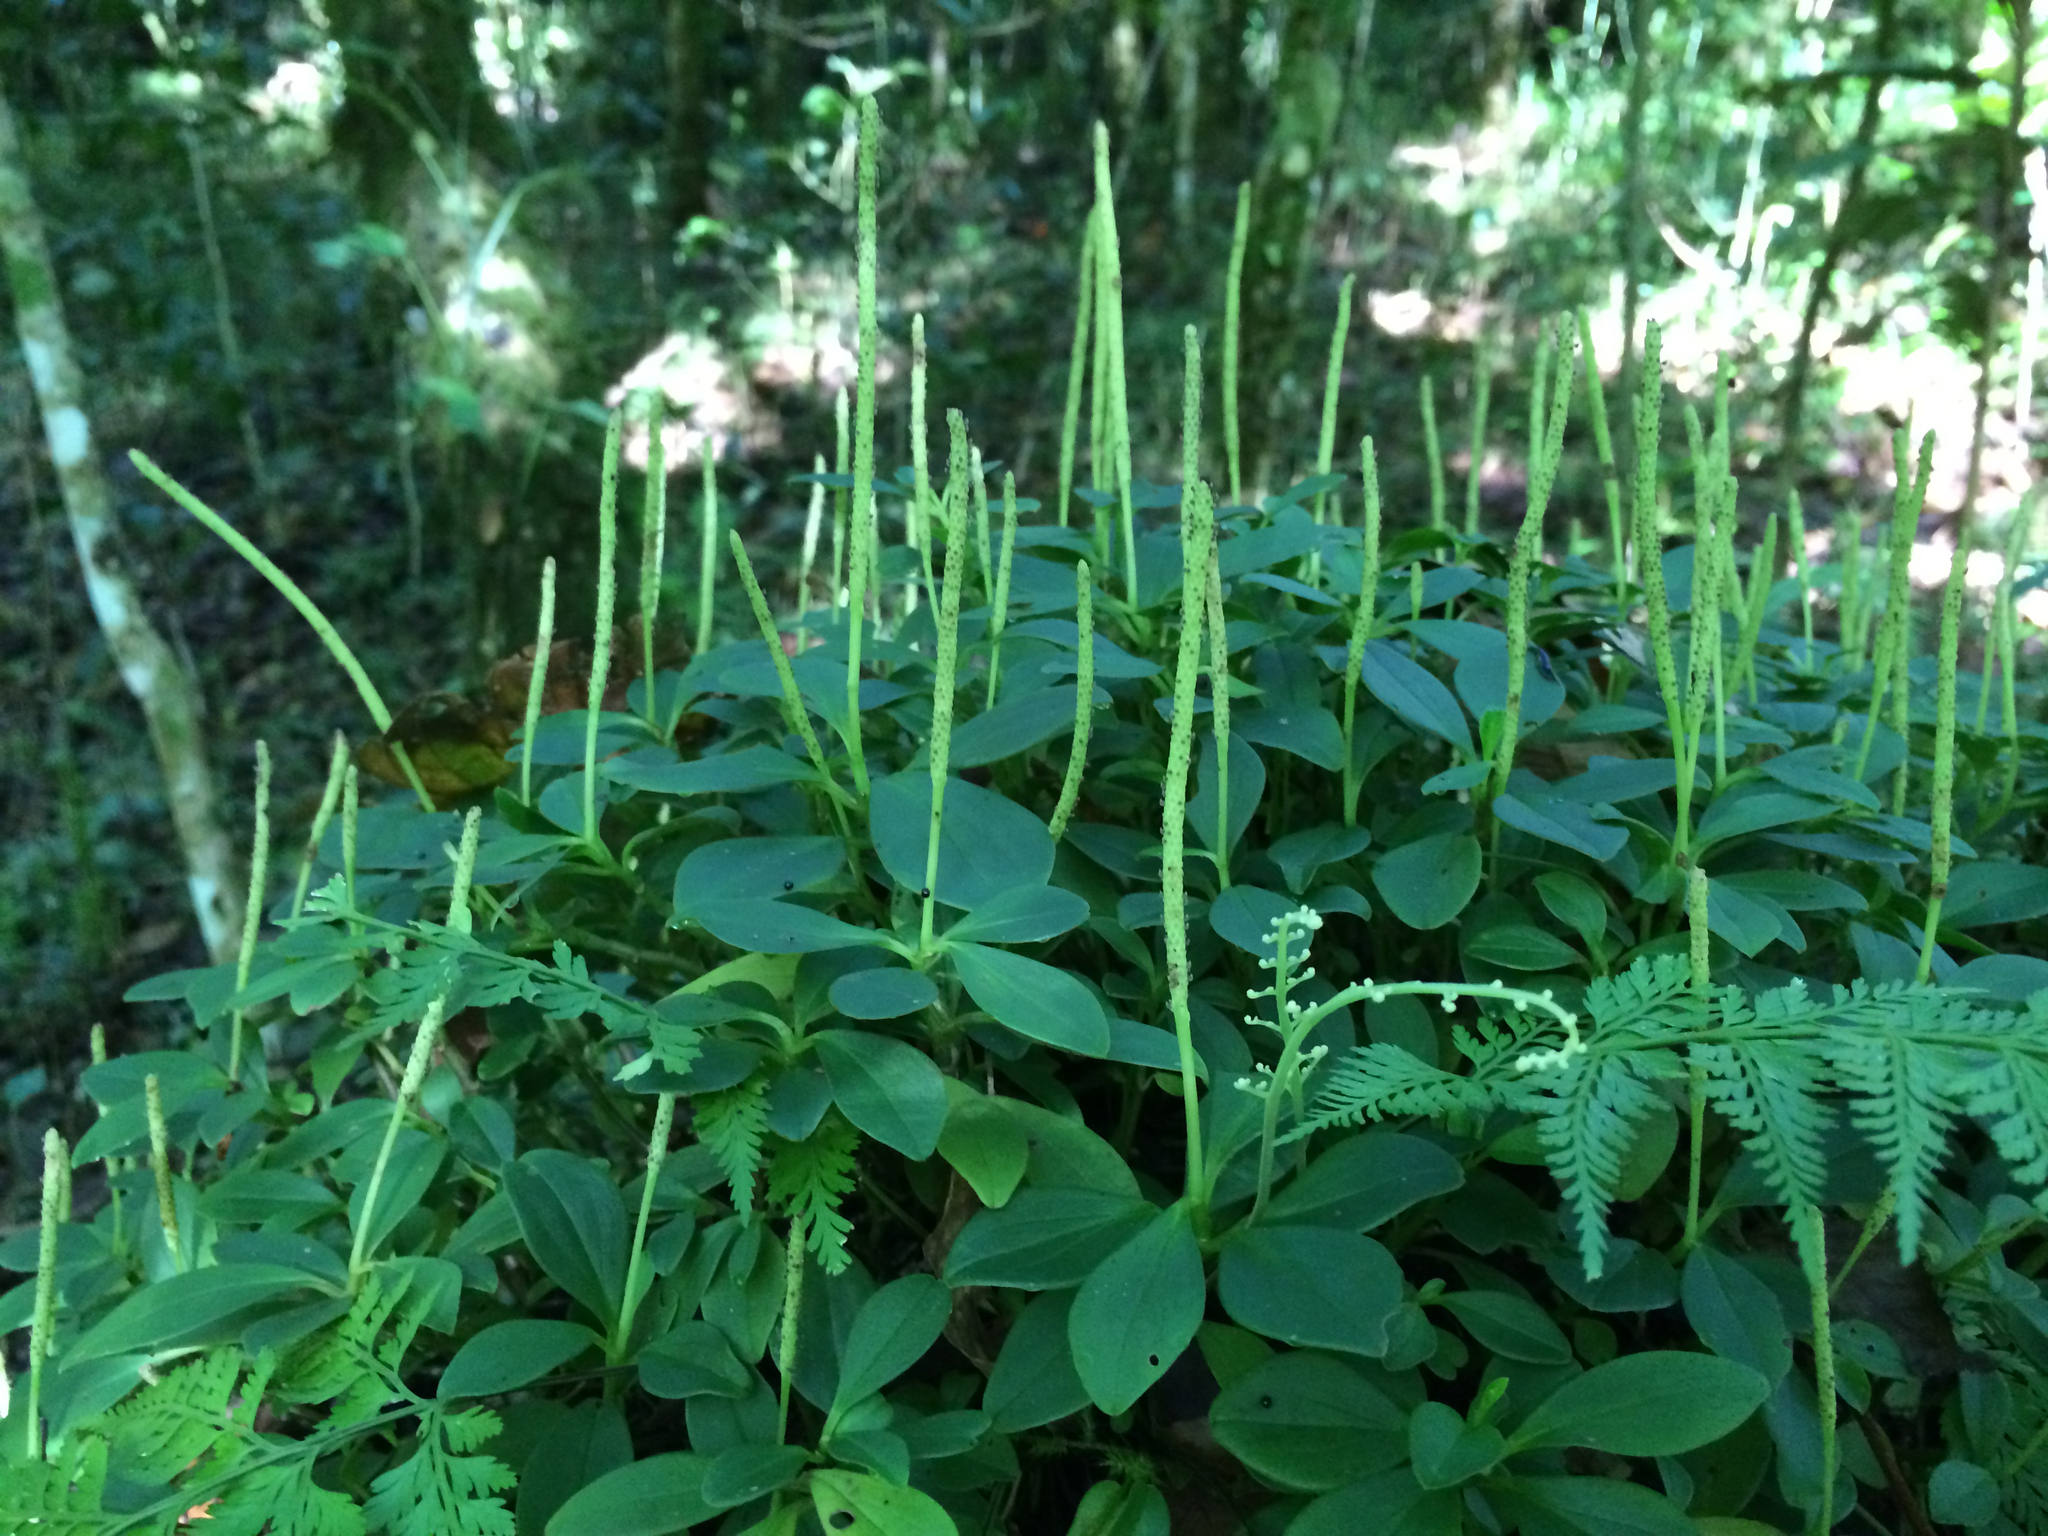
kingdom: Plantae
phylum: Tracheophyta
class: Magnoliopsida
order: Piperales
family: Piperaceae
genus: Peperomia
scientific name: Peperomia dendrophila
